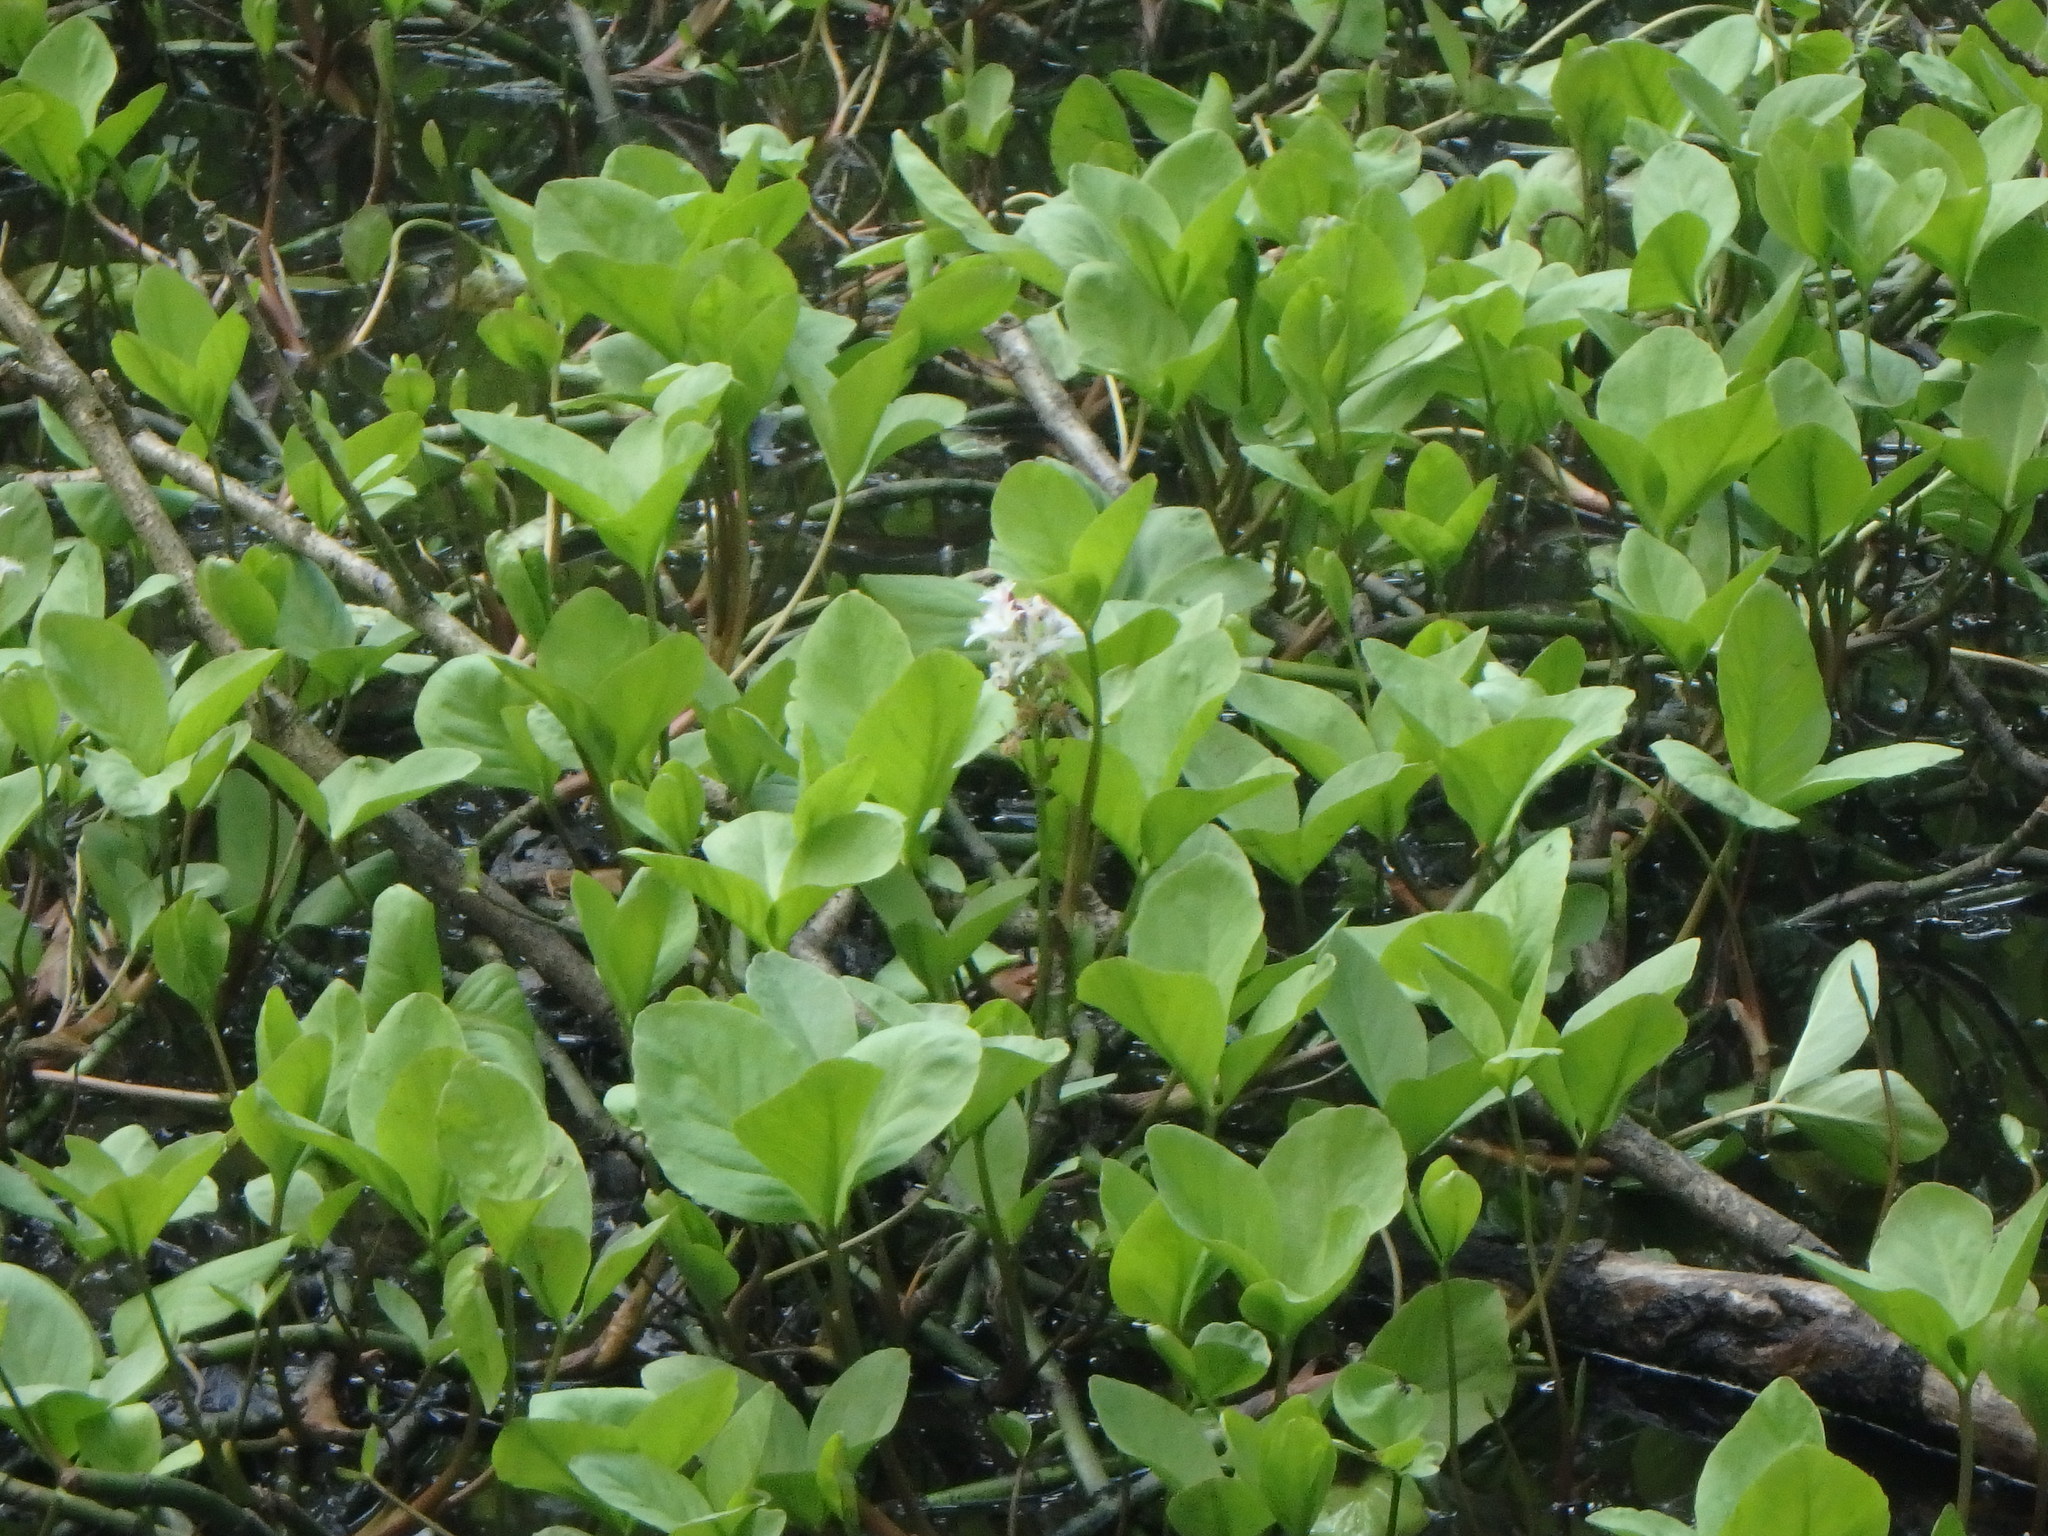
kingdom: Plantae
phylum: Tracheophyta
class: Magnoliopsida
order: Asterales
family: Menyanthaceae
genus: Menyanthes
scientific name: Menyanthes trifoliata
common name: Bogbean
